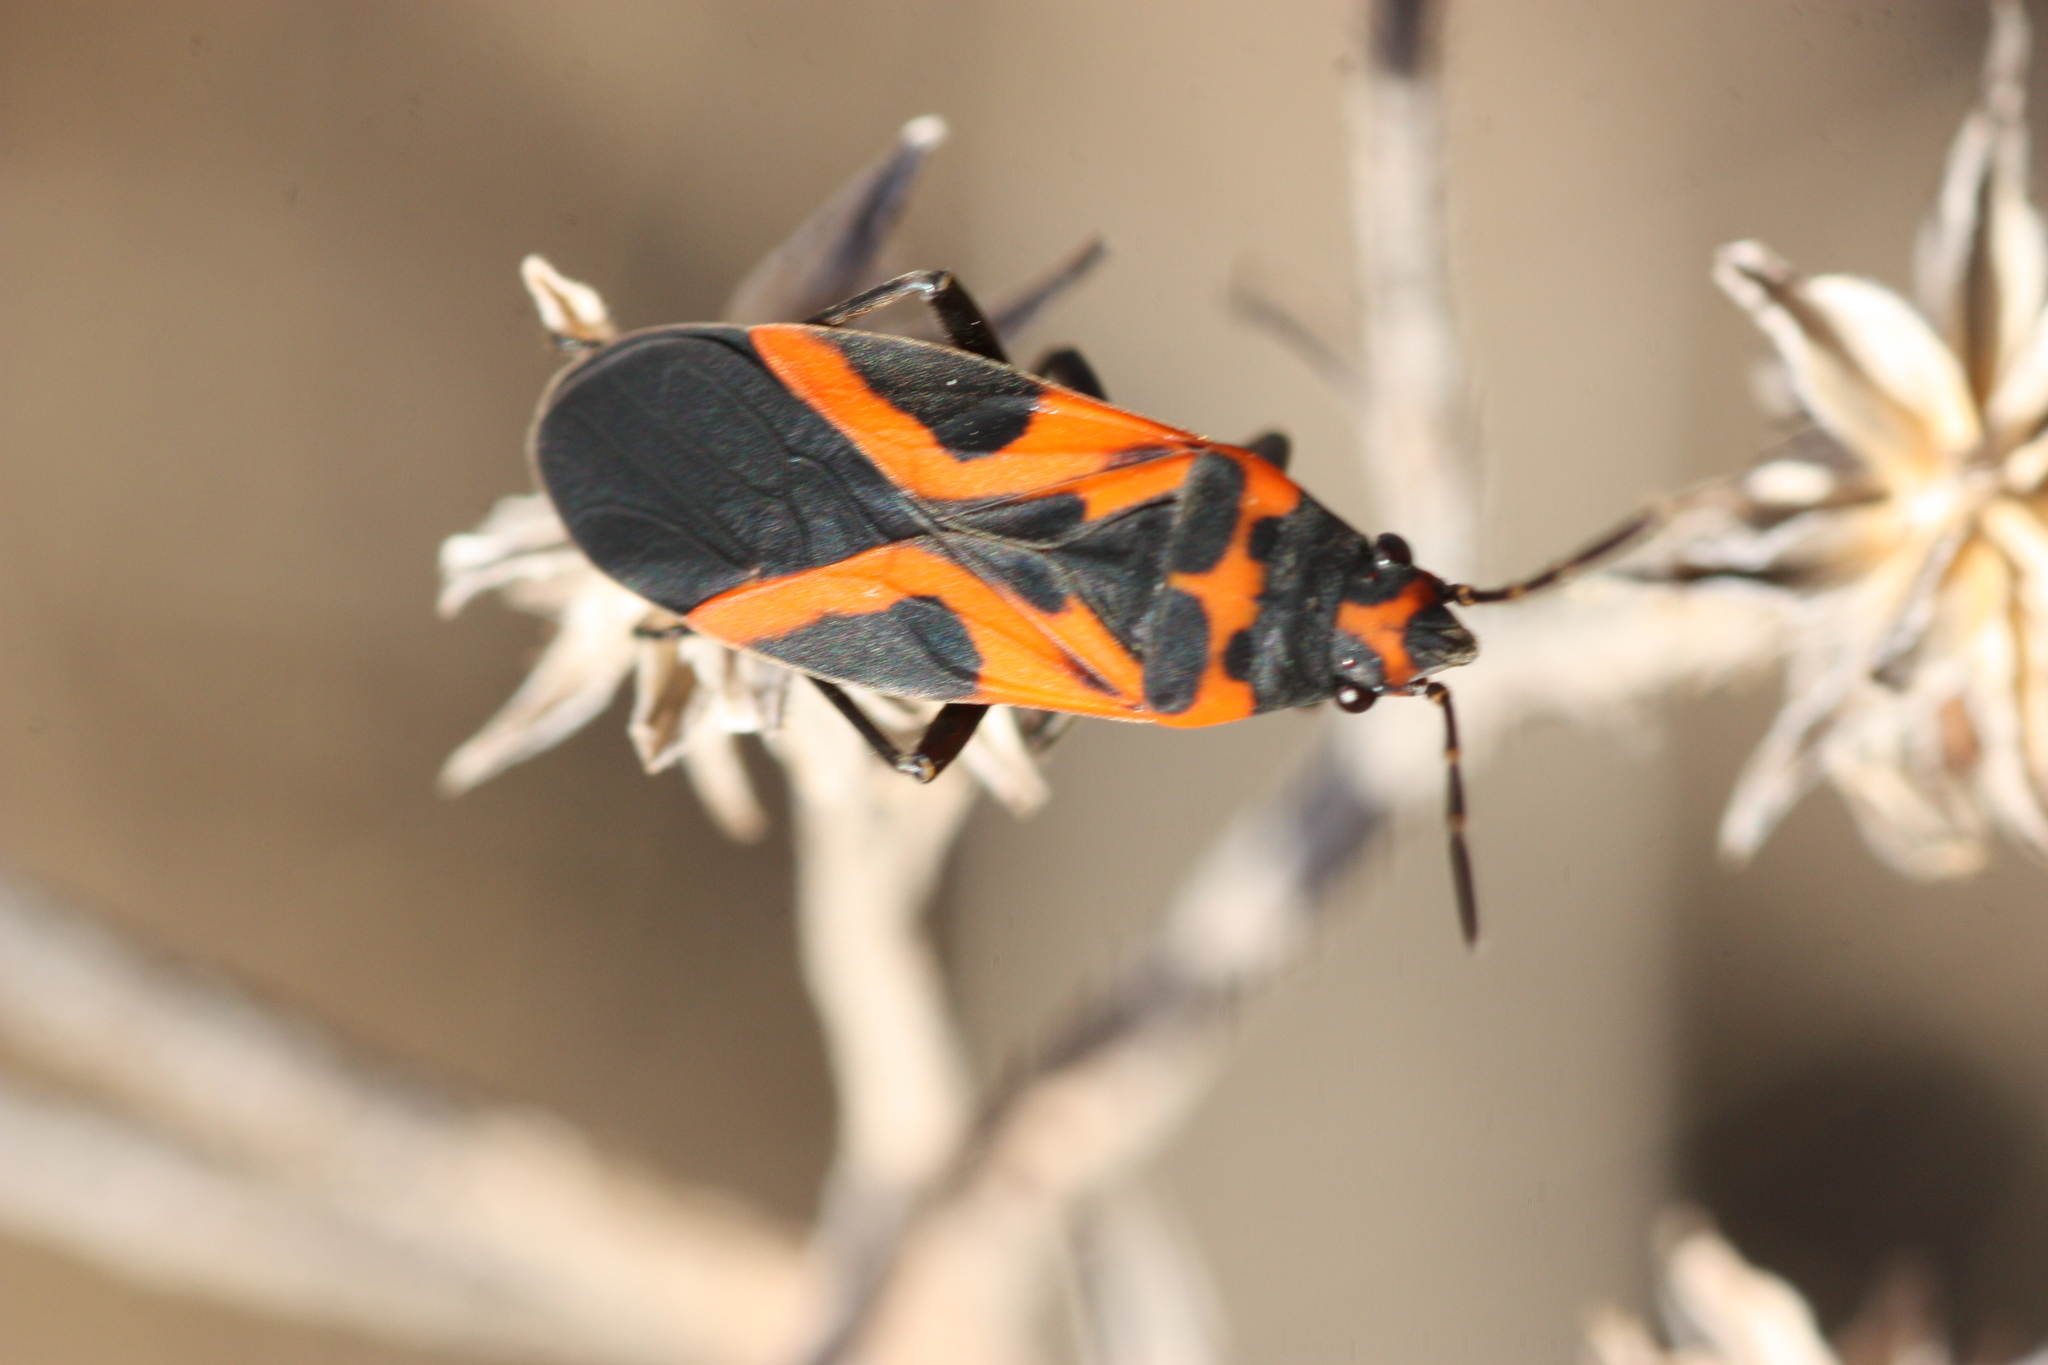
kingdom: Animalia
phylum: Arthropoda
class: Insecta
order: Hemiptera
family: Lygaeidae
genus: Lygaeus
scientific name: Lygaeus turcicus
